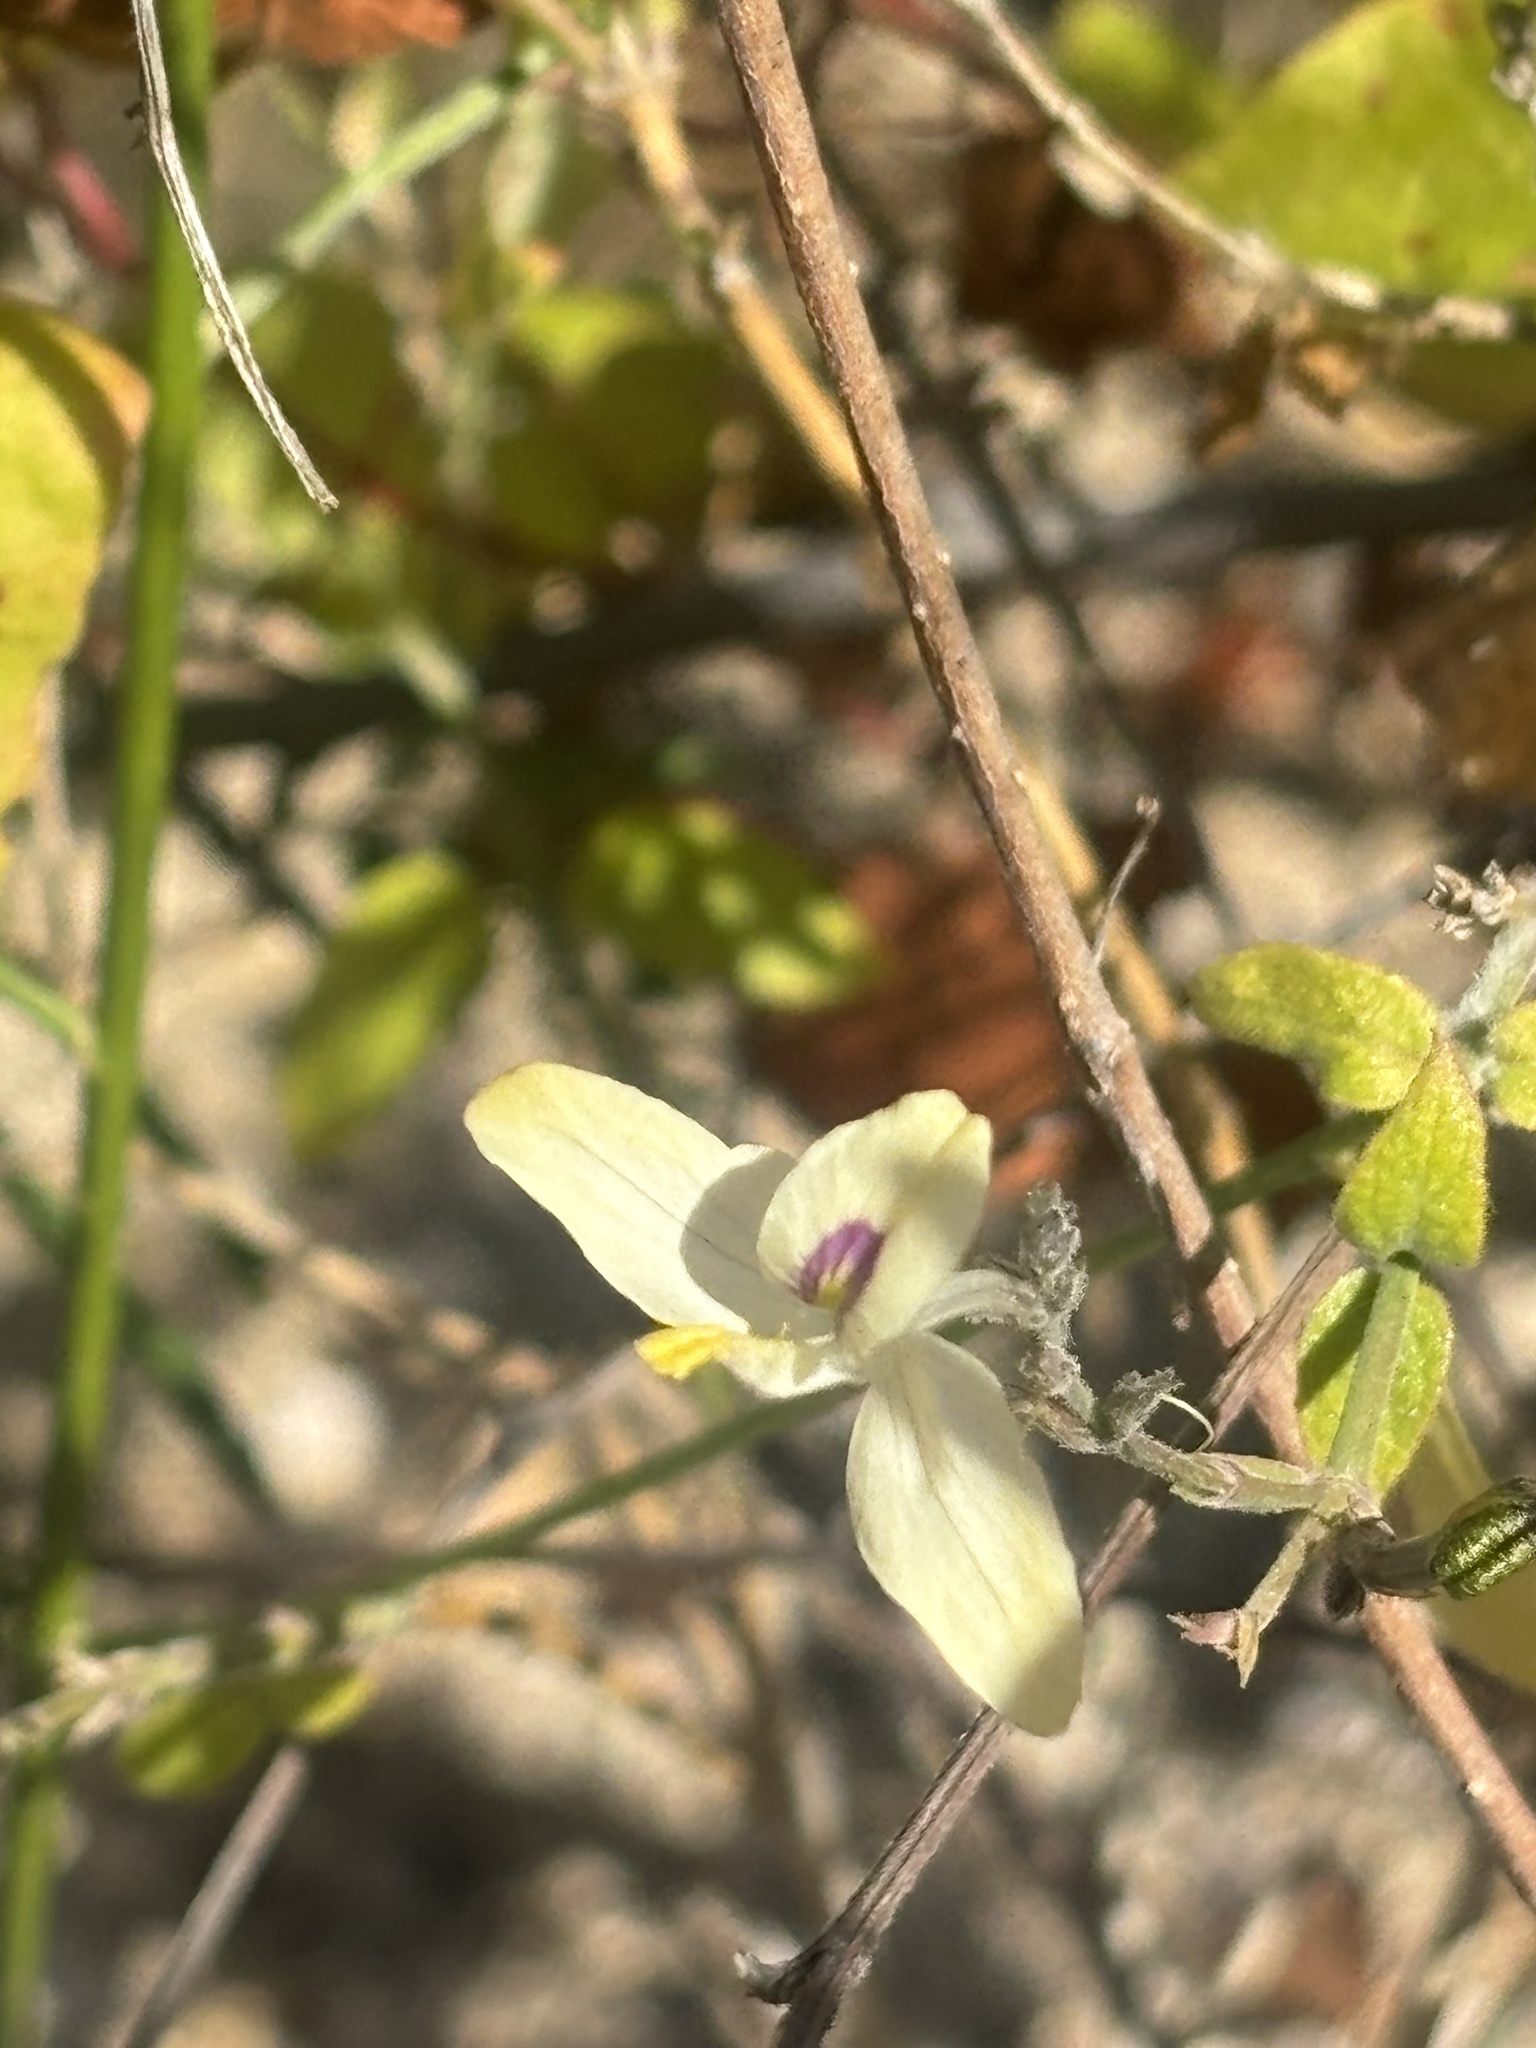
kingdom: Plantae
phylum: Tracheophyta
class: Magnoliopsida
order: Lamiales
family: Acanthaceae
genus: Carlowrightia
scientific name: Carlowrightia arizonica
